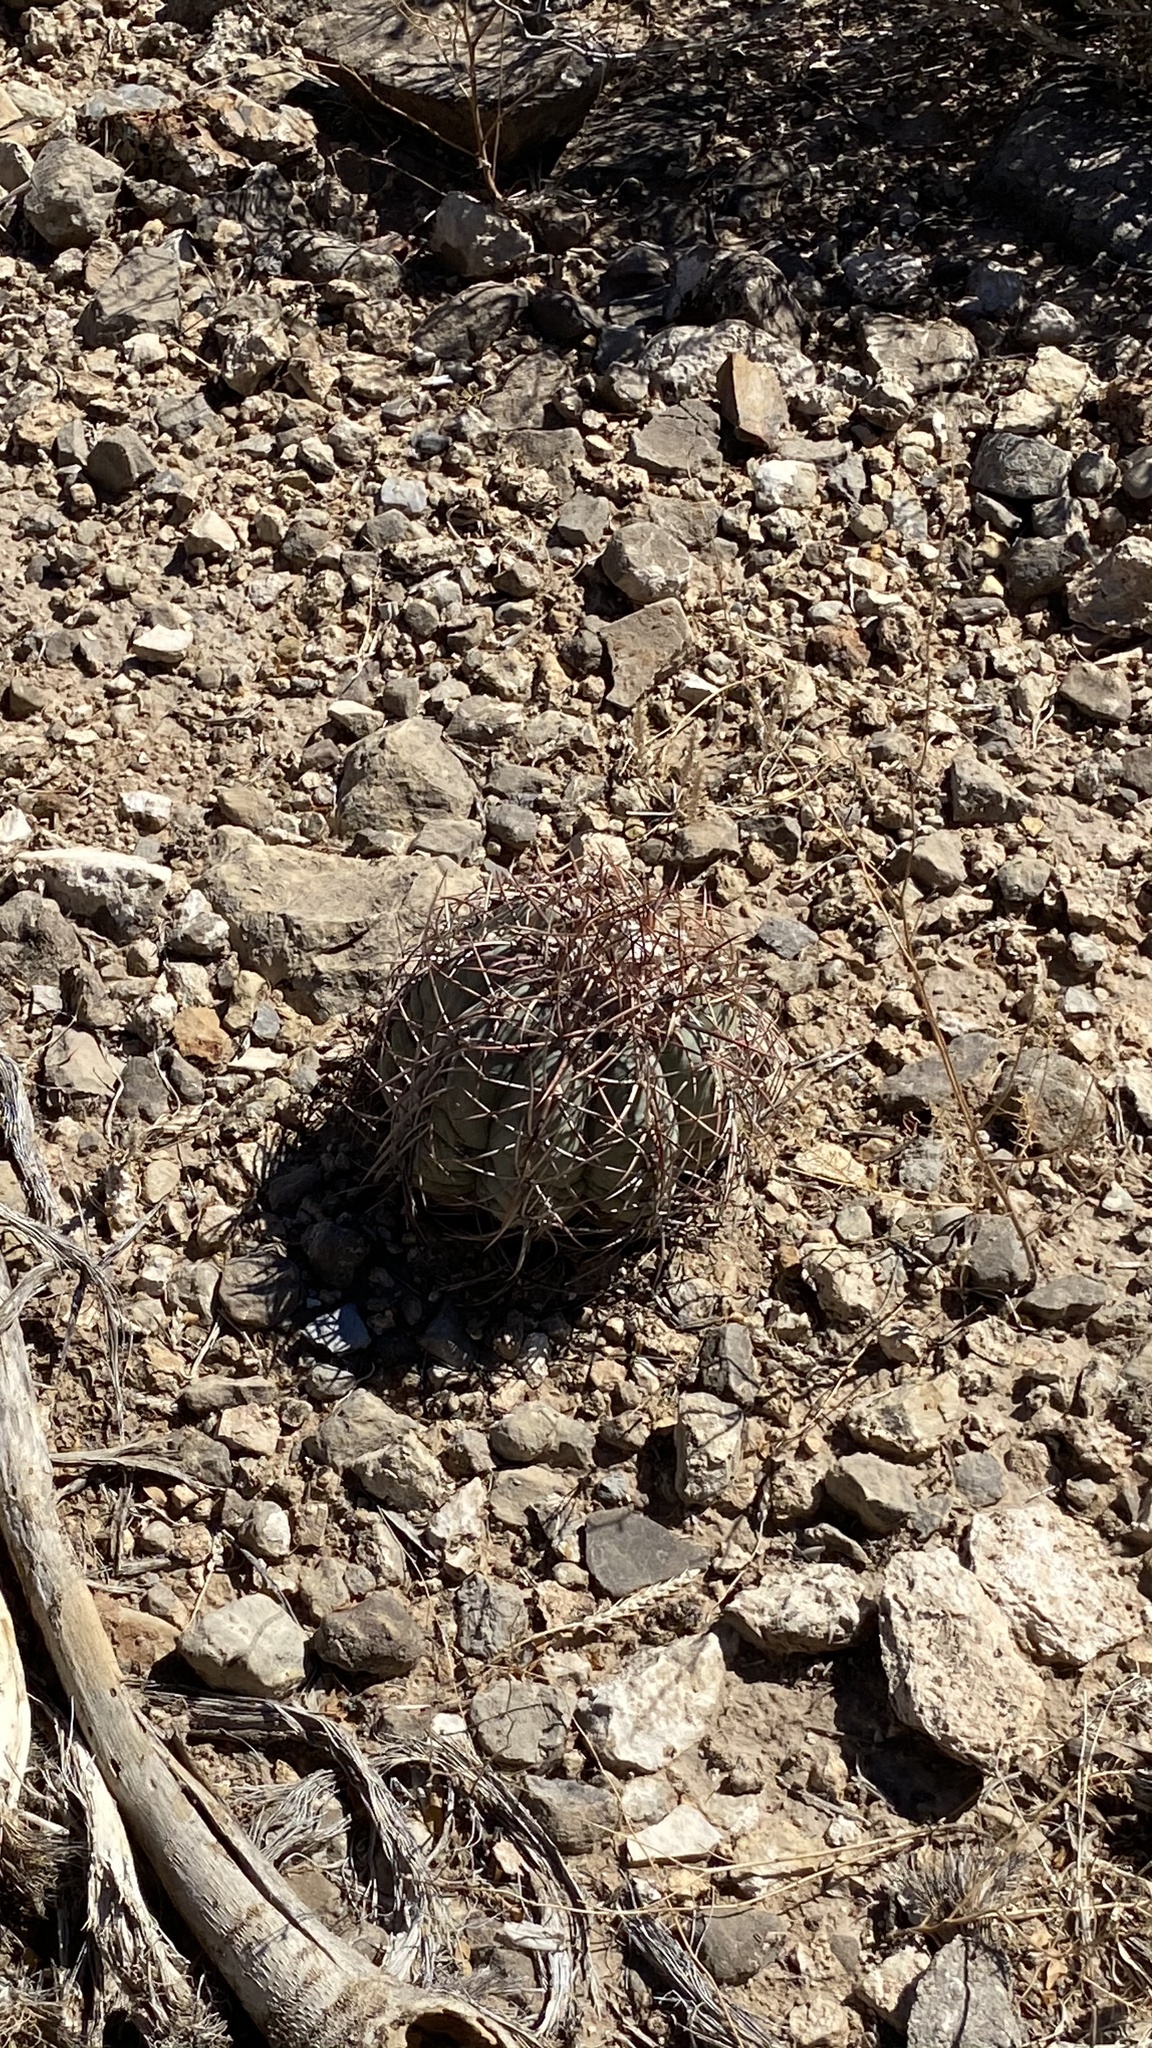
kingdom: Plantae
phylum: Tracheophyta
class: Magnoliopsida
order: Caryophyllales
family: Cactaceae
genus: Echinocactus
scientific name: Echinocactus horizonthalonius
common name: Devilshead
